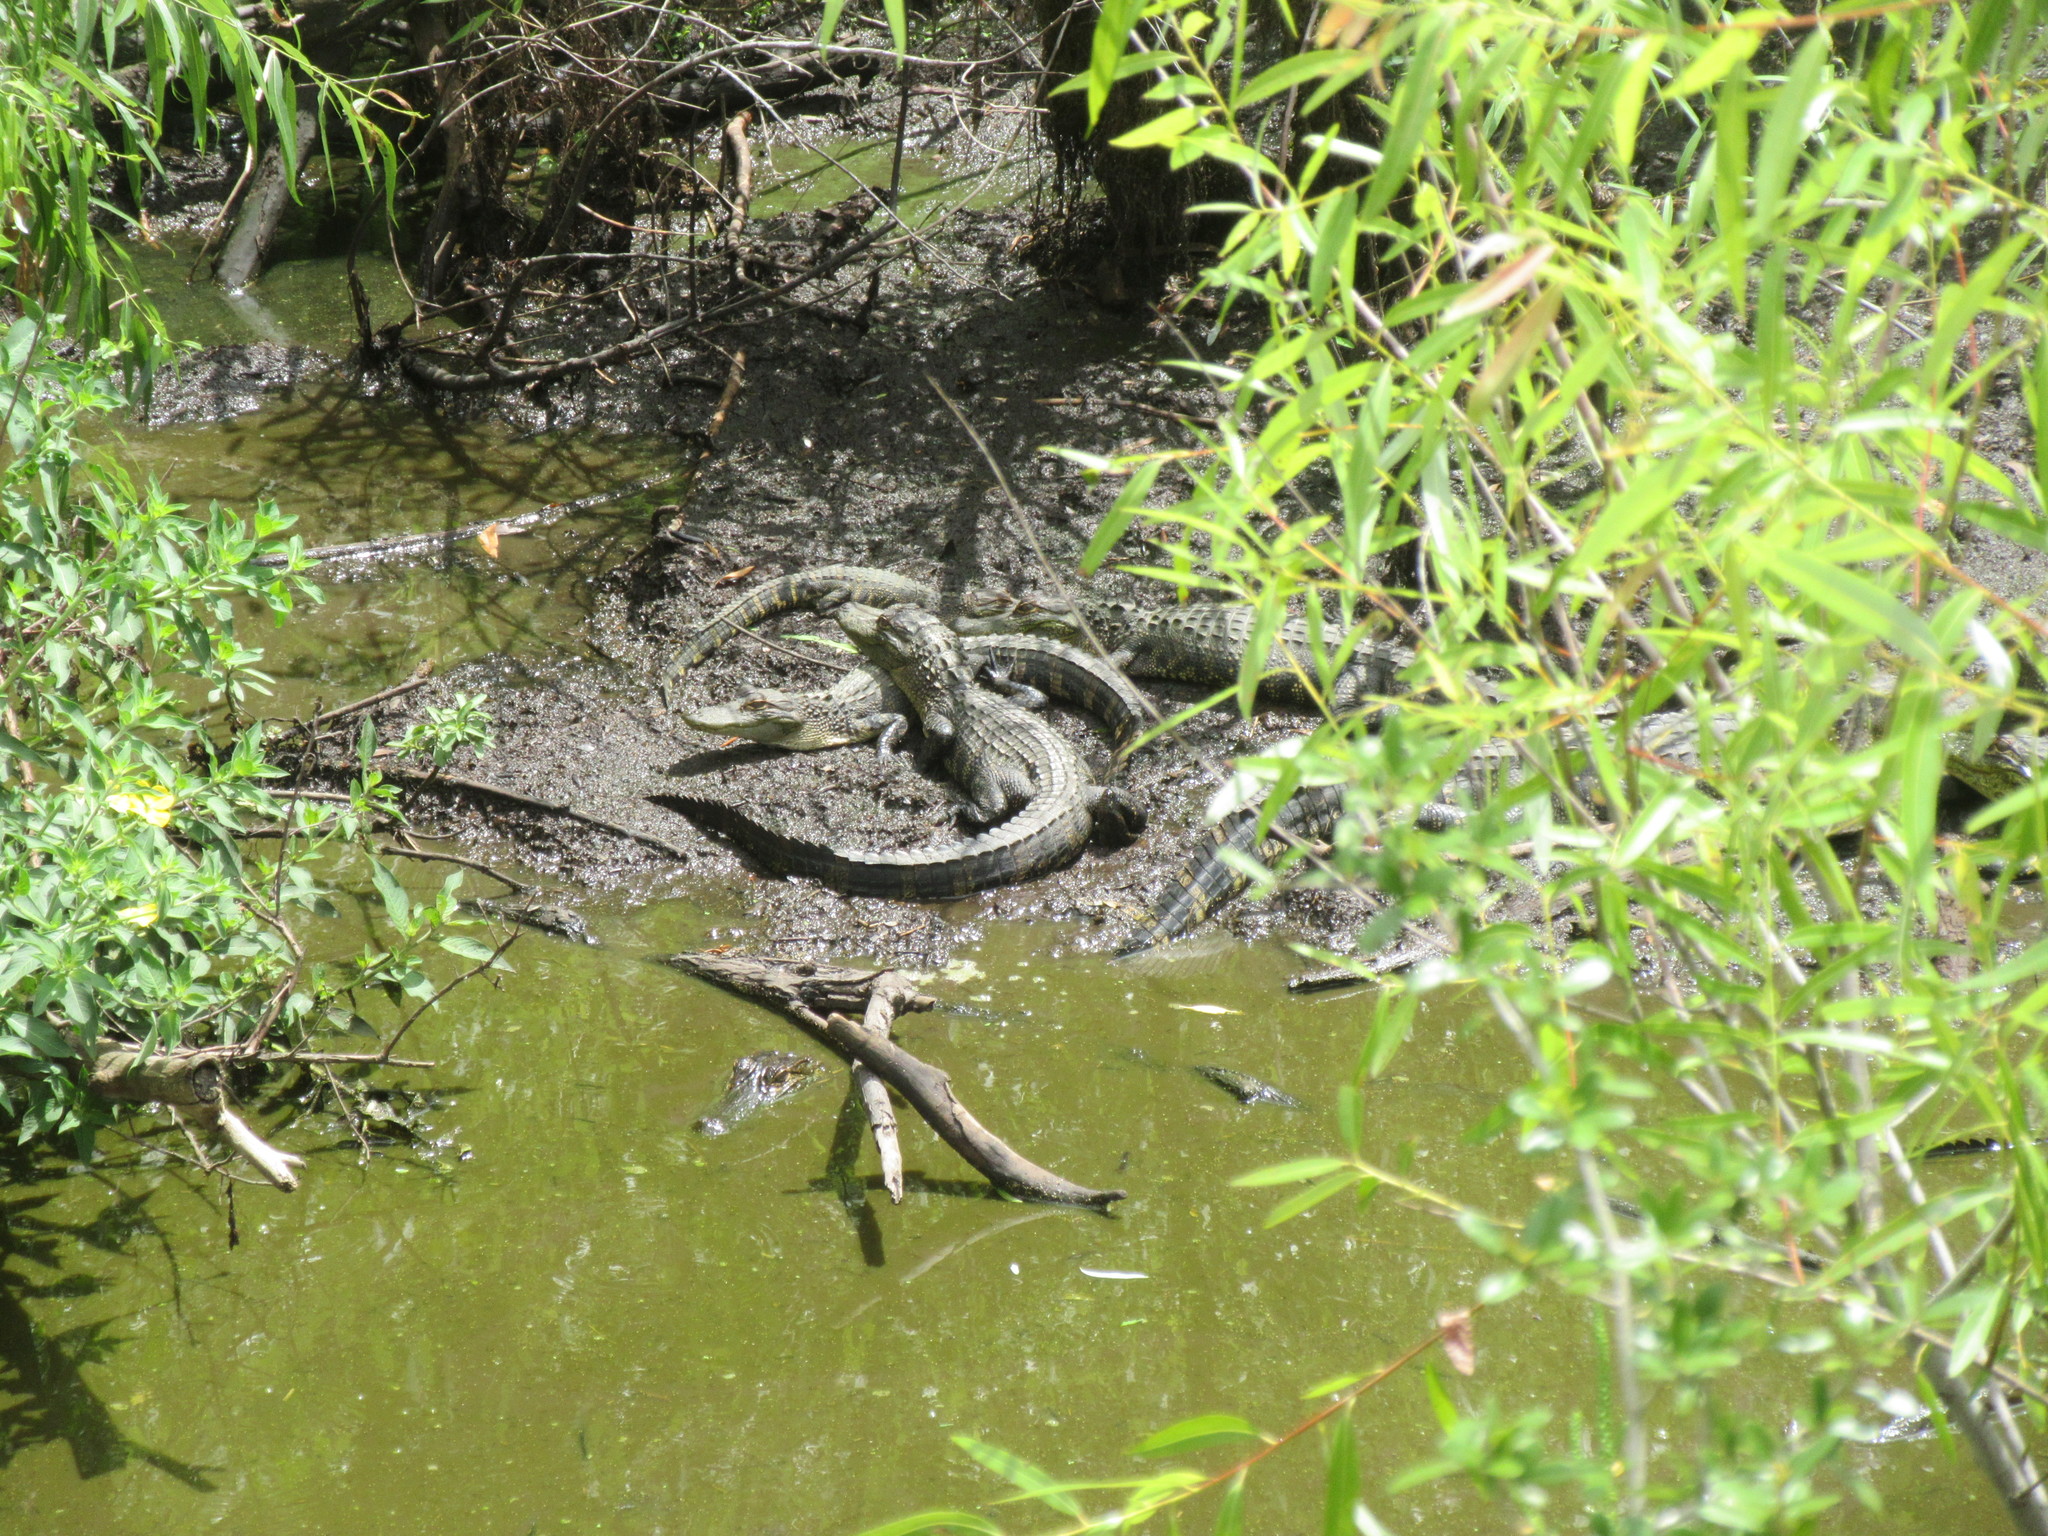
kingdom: Animalia
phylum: Chordata
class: Crocodylia
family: Alligatoridae
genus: Alligator
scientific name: Alligator mississippiensis
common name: American alligator
